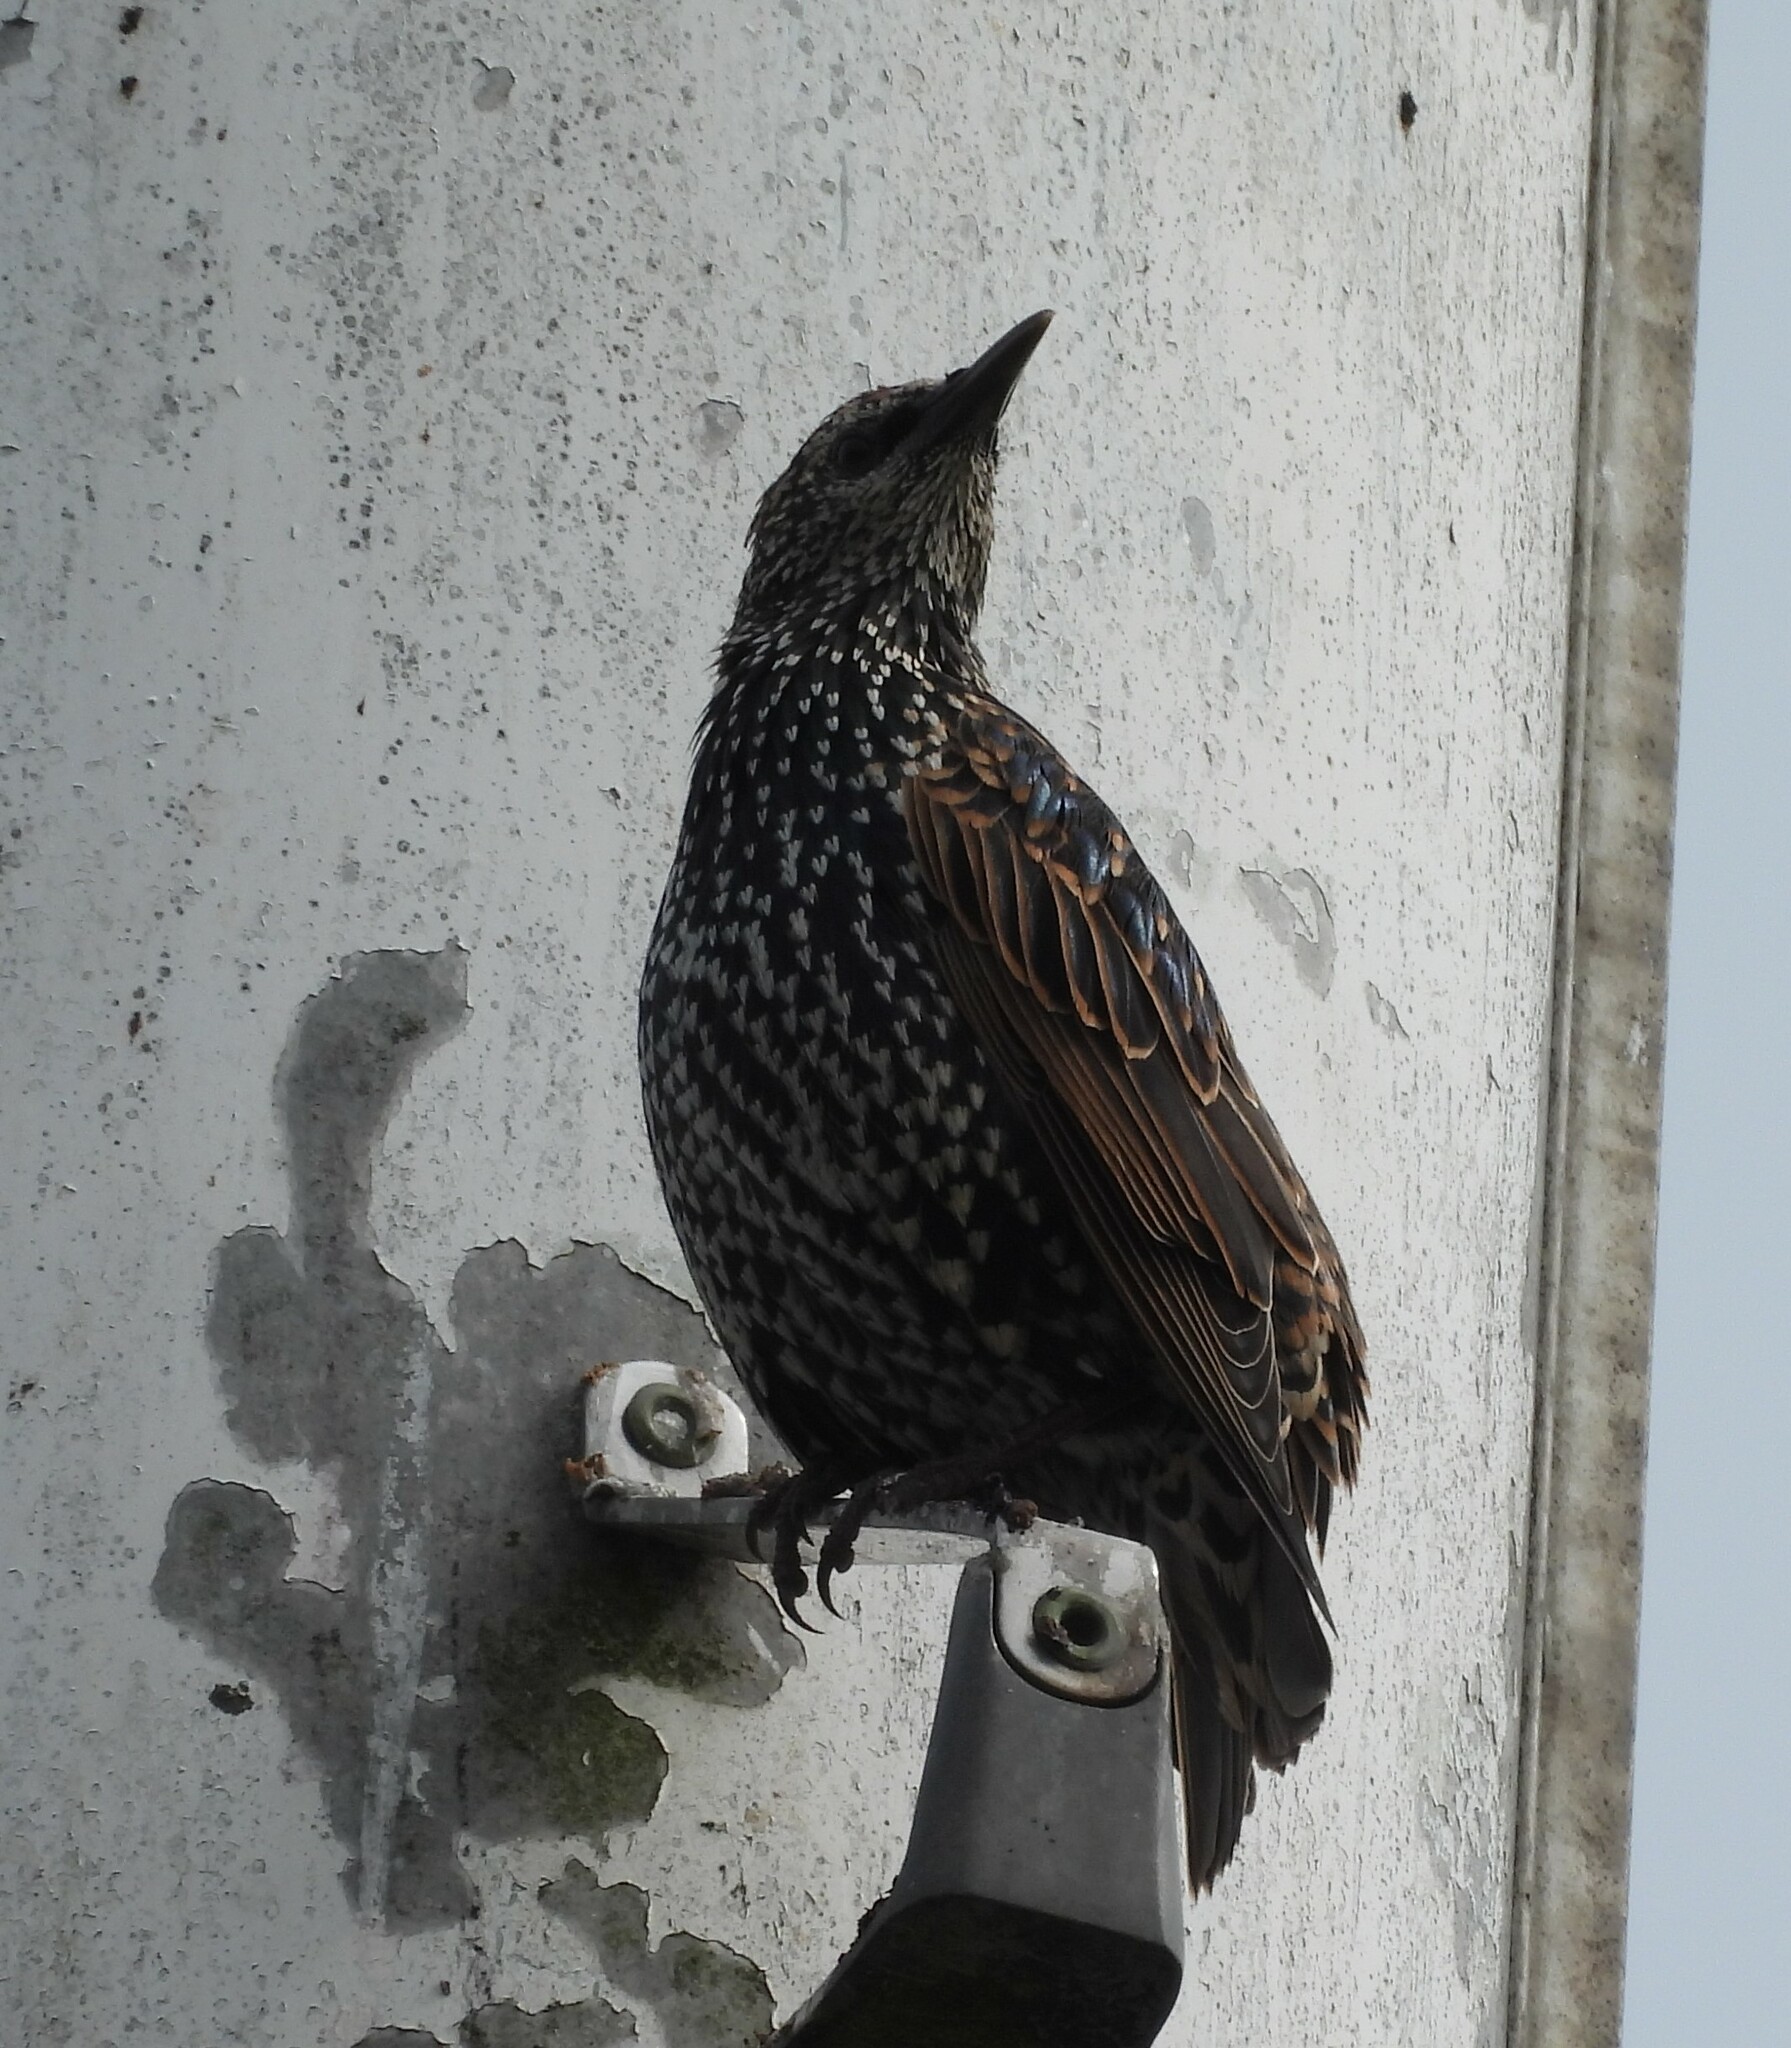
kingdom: Animalia
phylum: Chordata
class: Aves
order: Passeriformes
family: Sturnidae
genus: Sturnus
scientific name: Sturnus vulgaris
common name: Common starling
